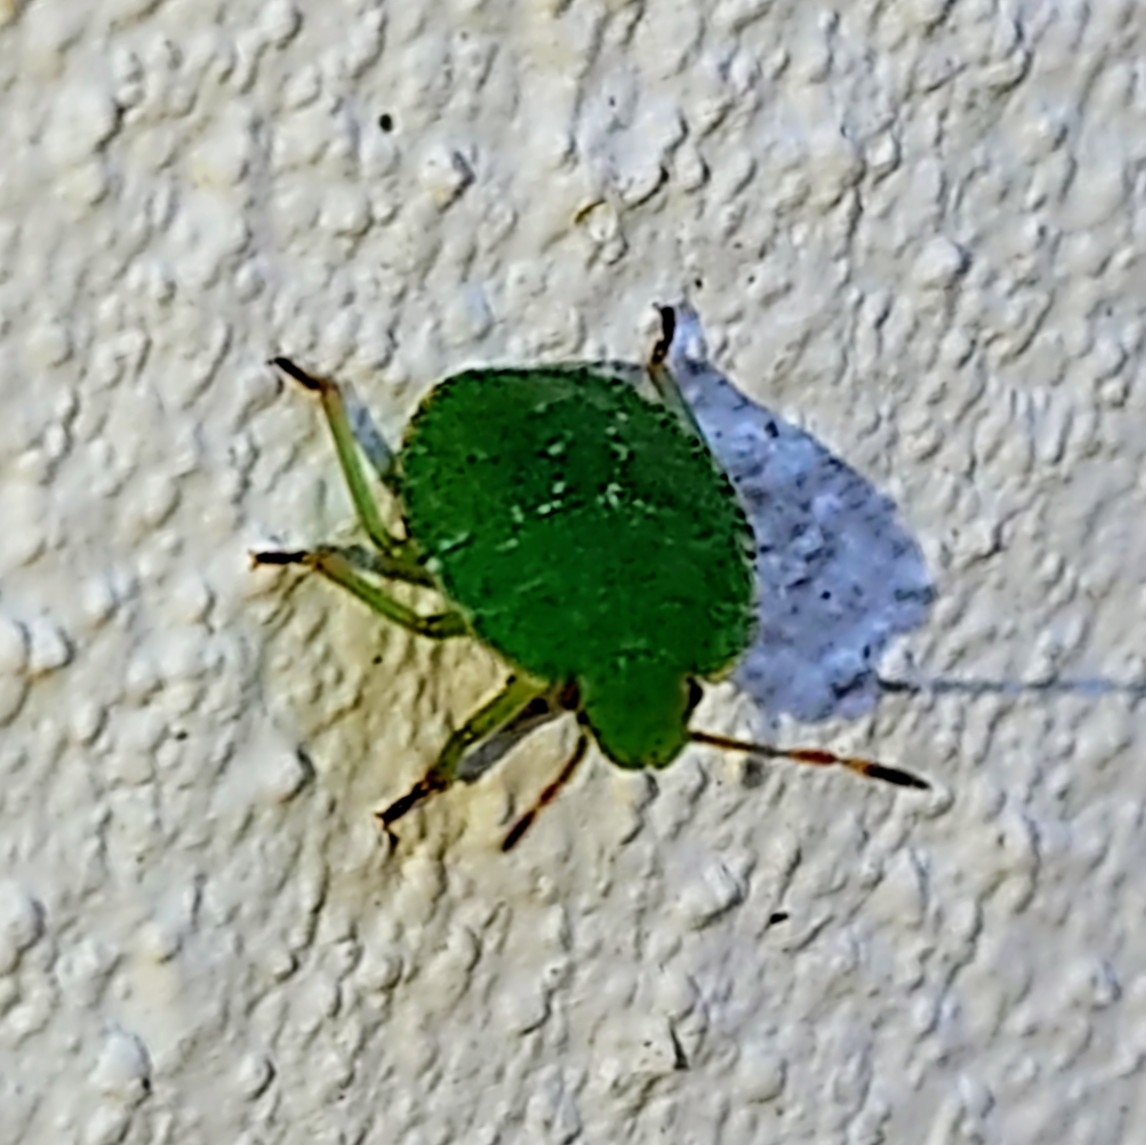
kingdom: Animalia
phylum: Arthropoda
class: Insecta
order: Hemiptera
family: Pentatomidae
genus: Palomena
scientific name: Palomena prasina
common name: Green shieldbug
